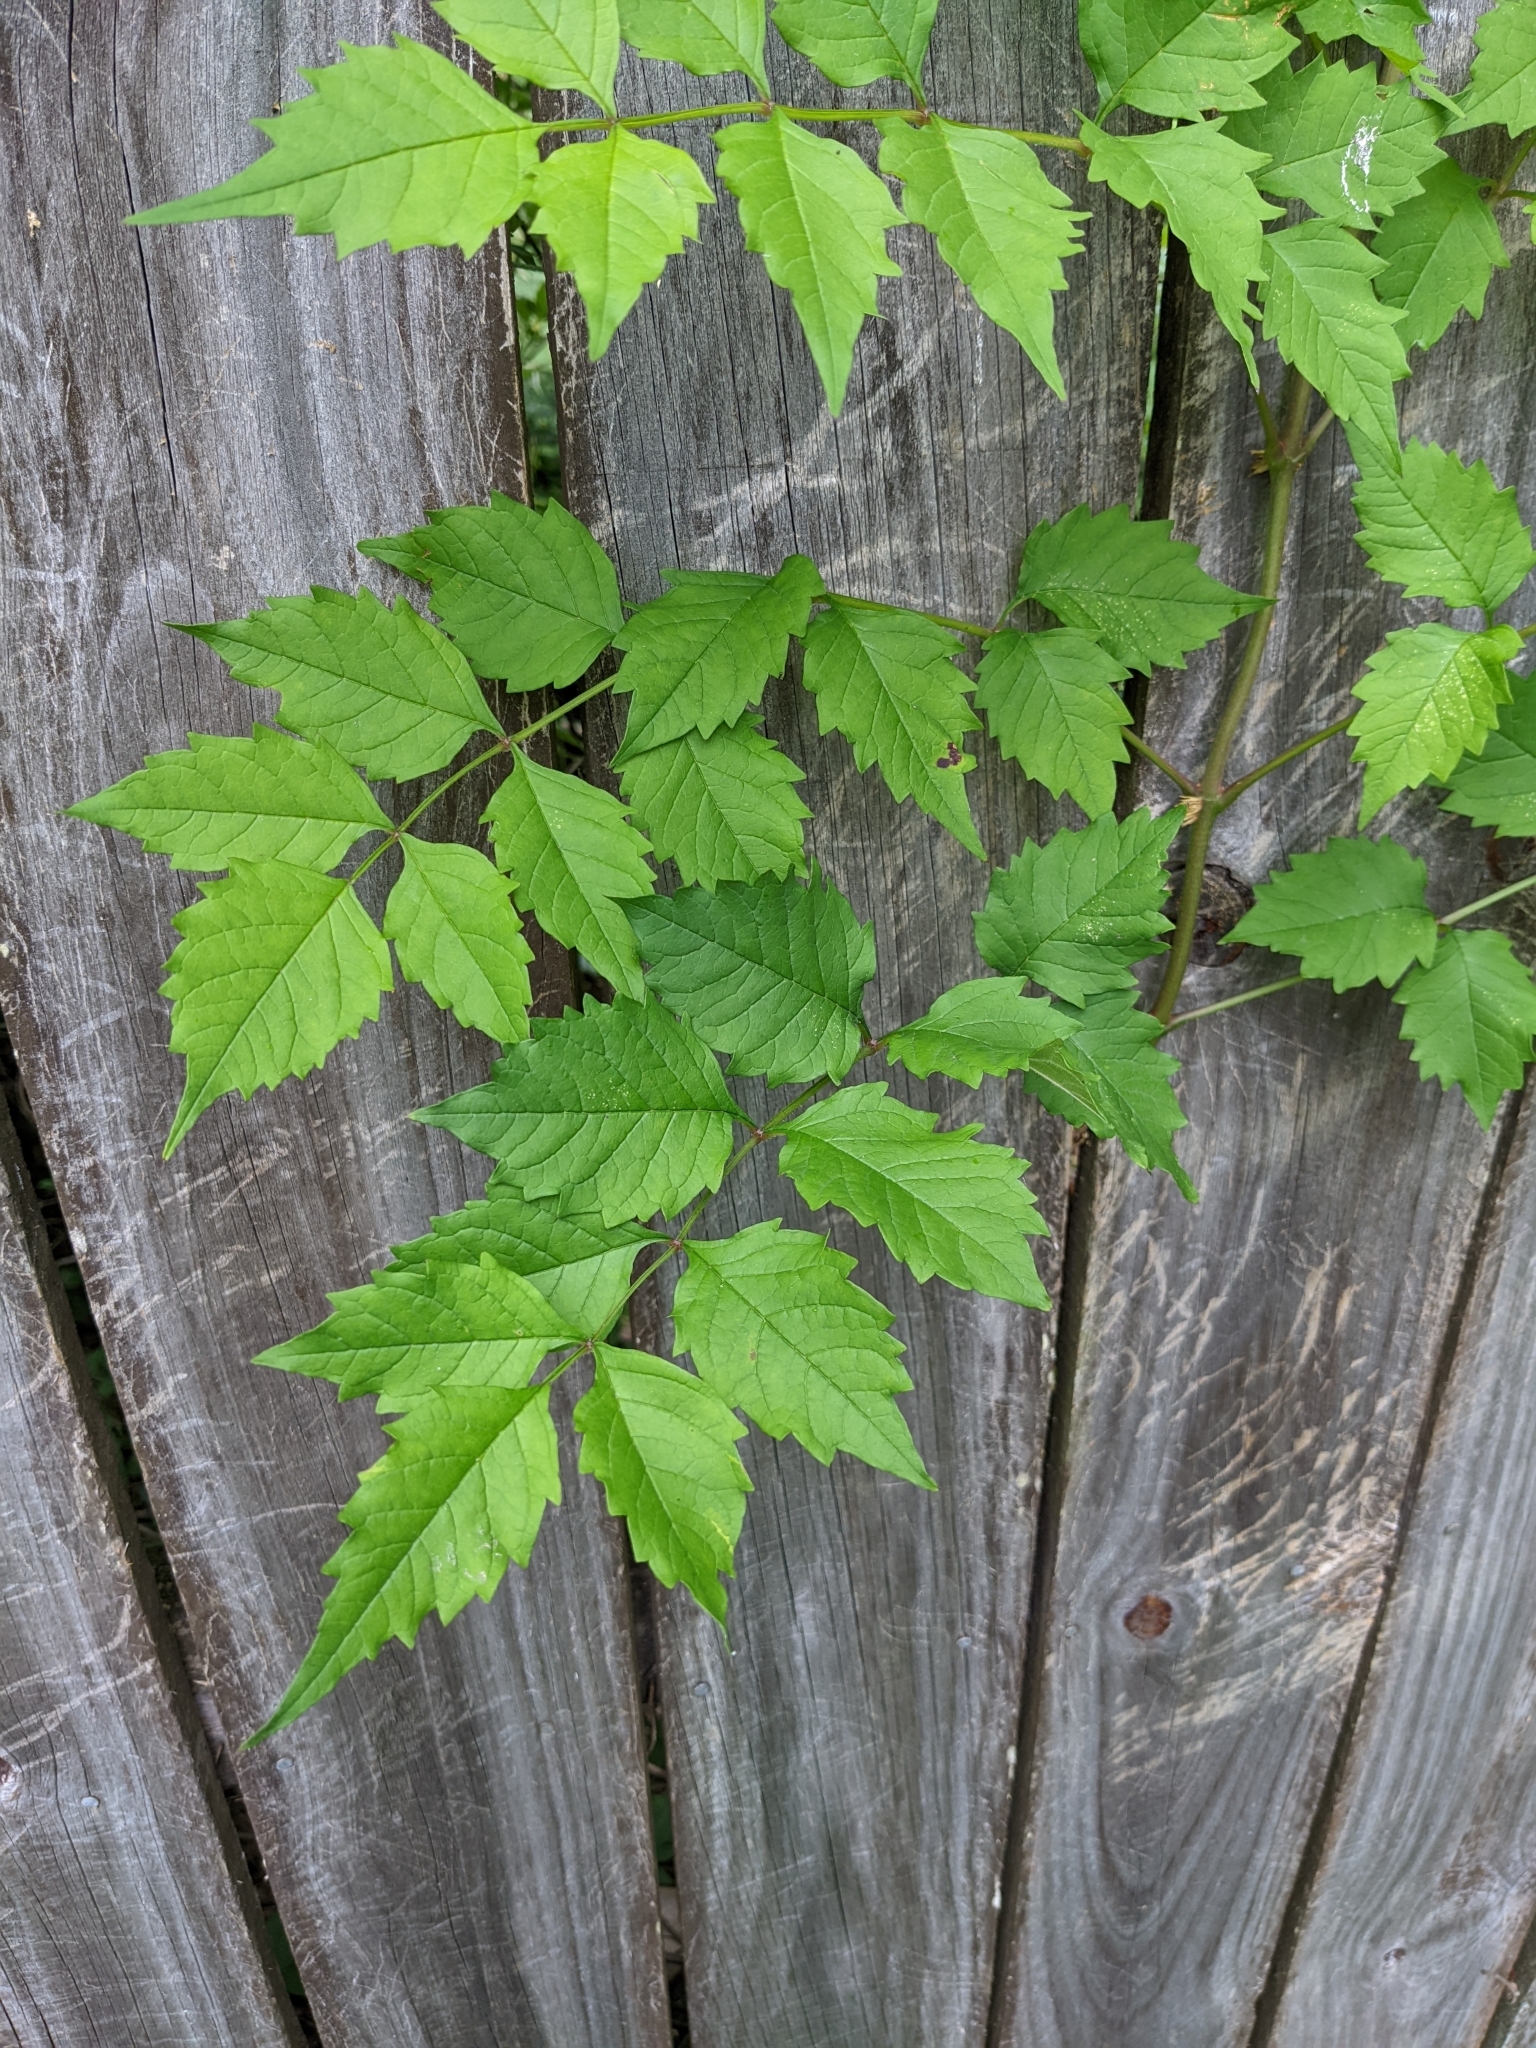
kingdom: Plantae
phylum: Tracheophyta
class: Magnoliopsida
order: Lamiales
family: Bignoniaceae
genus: Campsis
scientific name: Campsis radicans
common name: Trumpet-creeper
